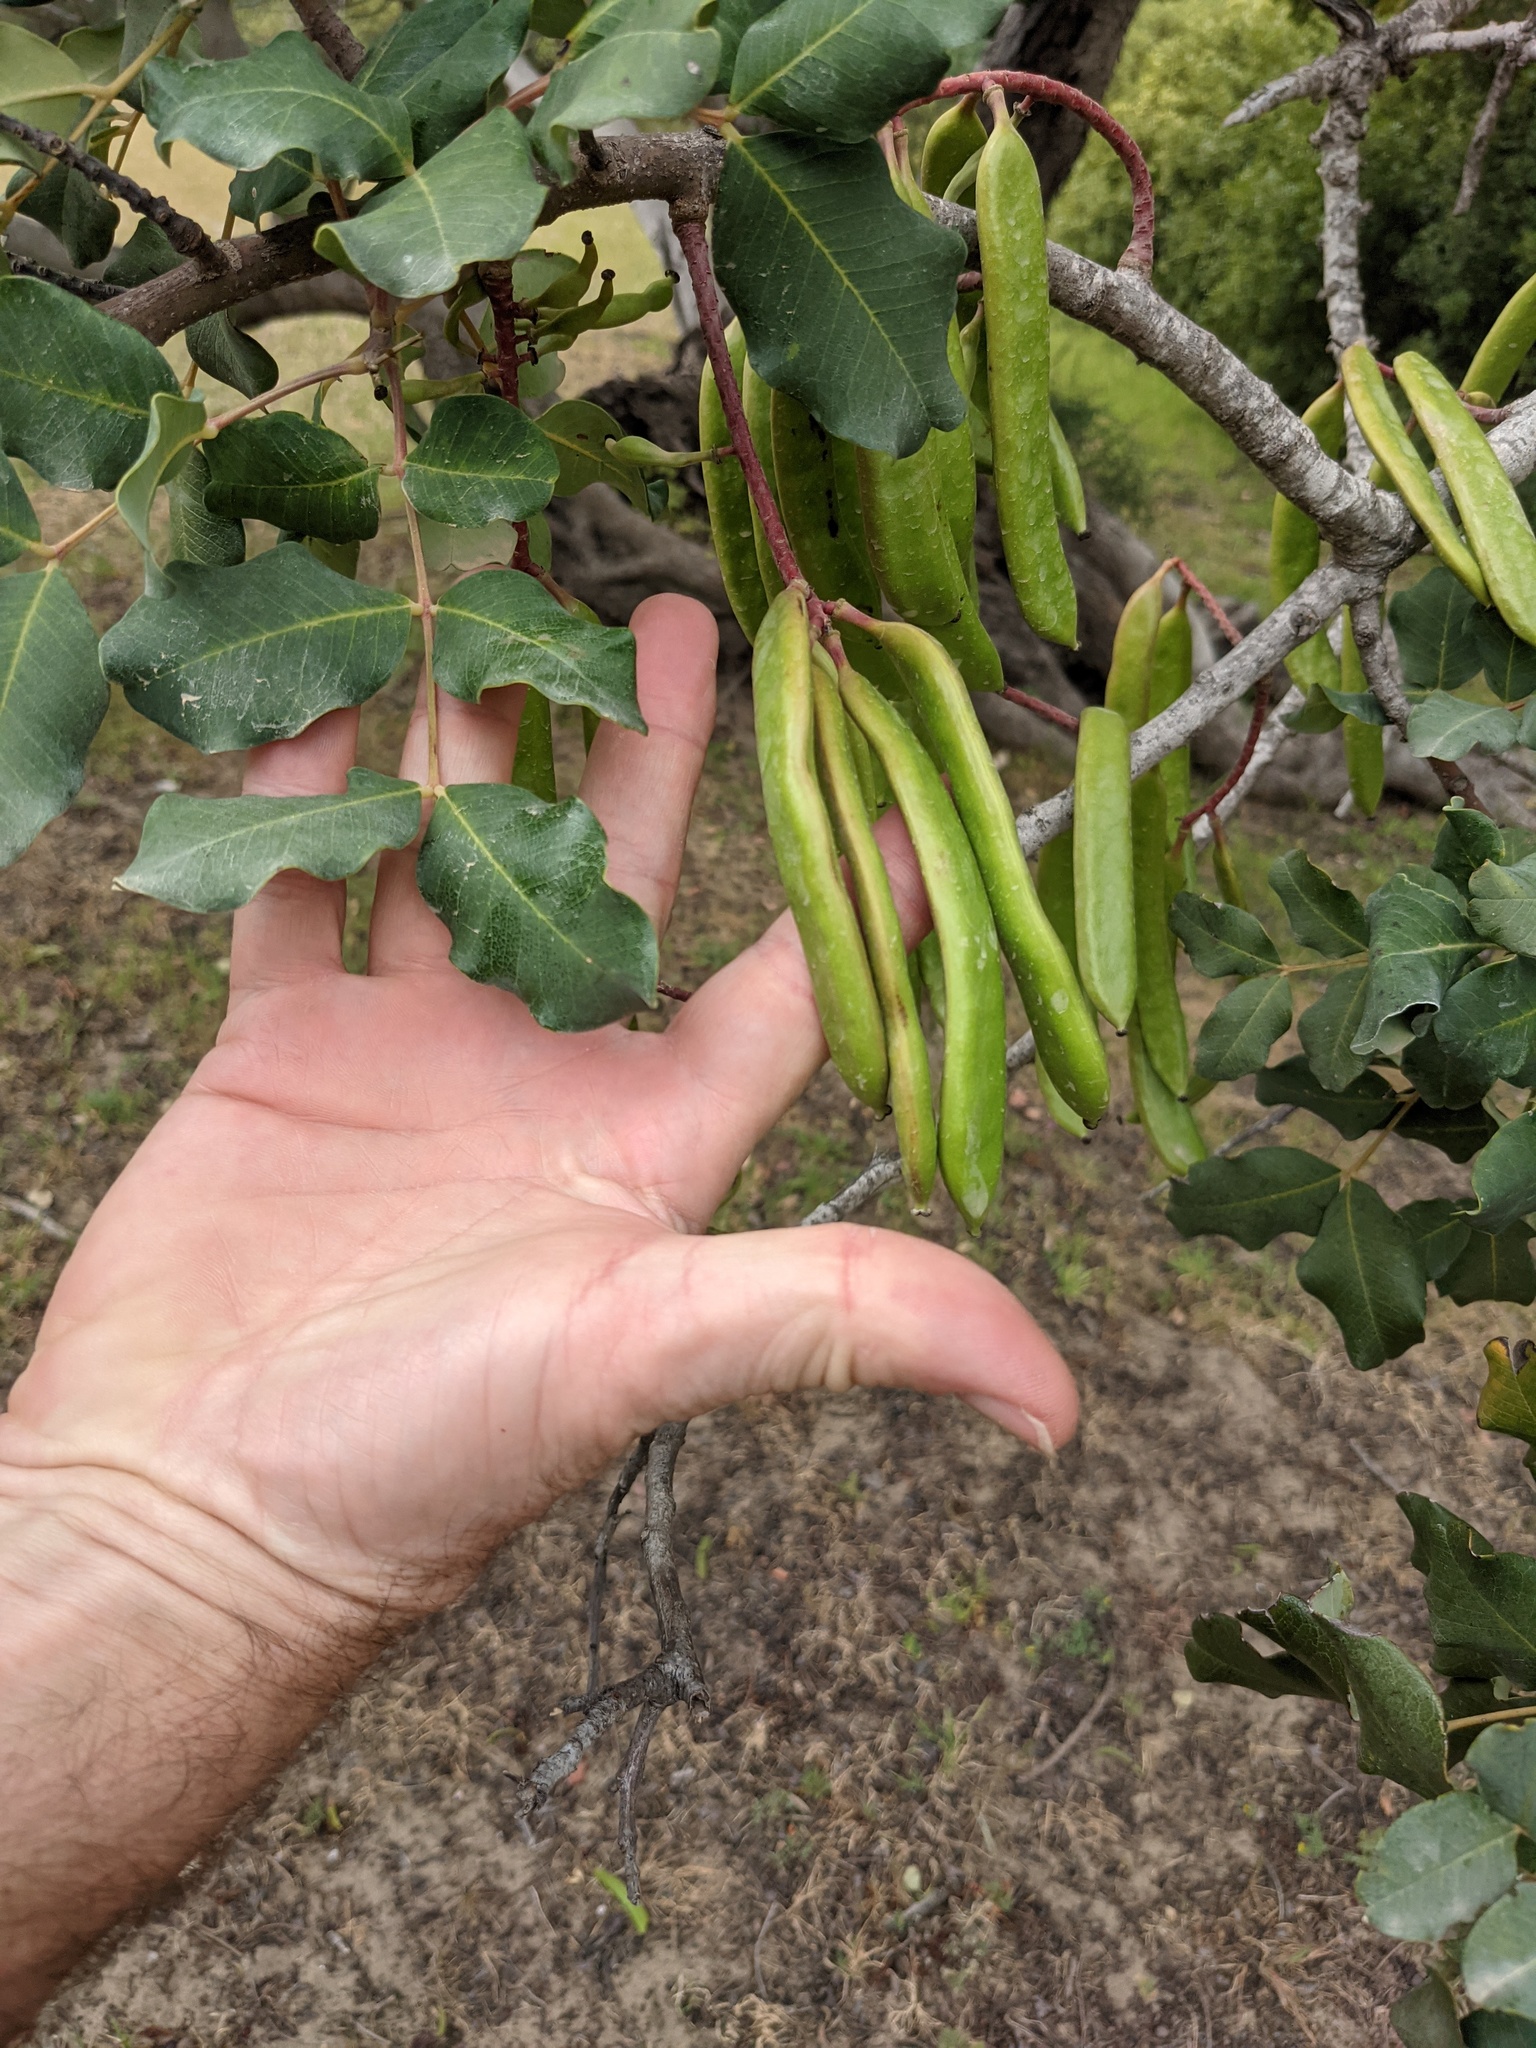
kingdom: Plantae
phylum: Tracheophyta
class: Magnoliopsida
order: Fabales
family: Fabaceae
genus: Ceratonia
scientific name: Ceratonia siliqua
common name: Carob
